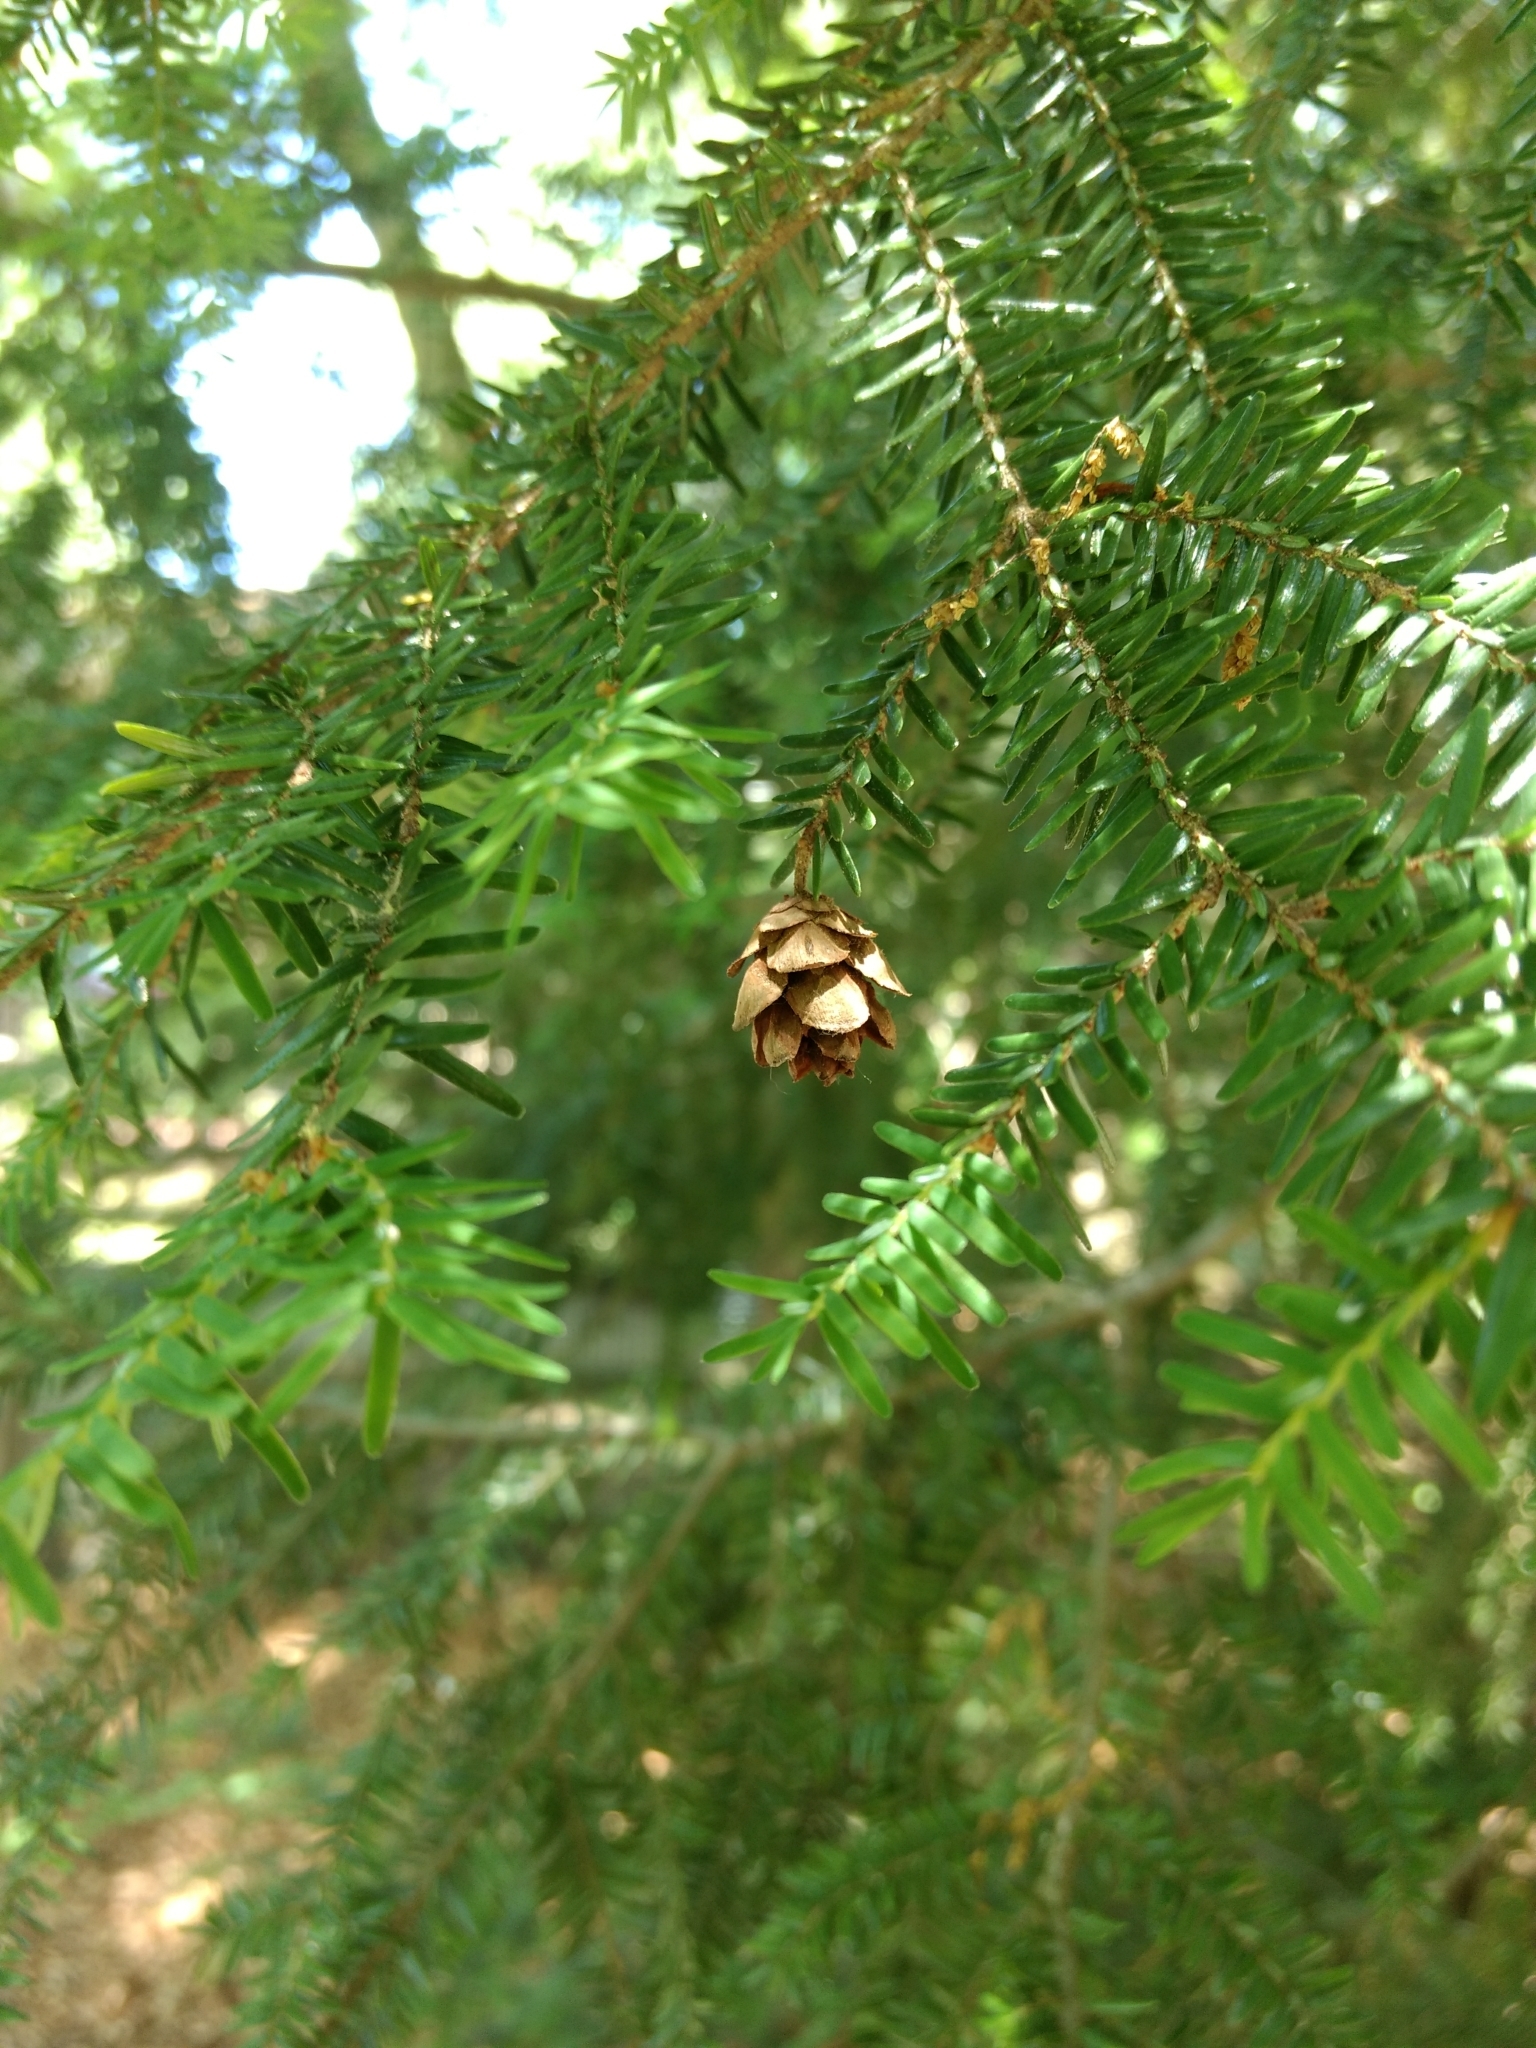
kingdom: Plantae
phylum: Tracheophyta
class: Pinopsida
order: Pinales
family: Pinaceae
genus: Tsuga
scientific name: Tsuga canadensis
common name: Eastern hemlock
